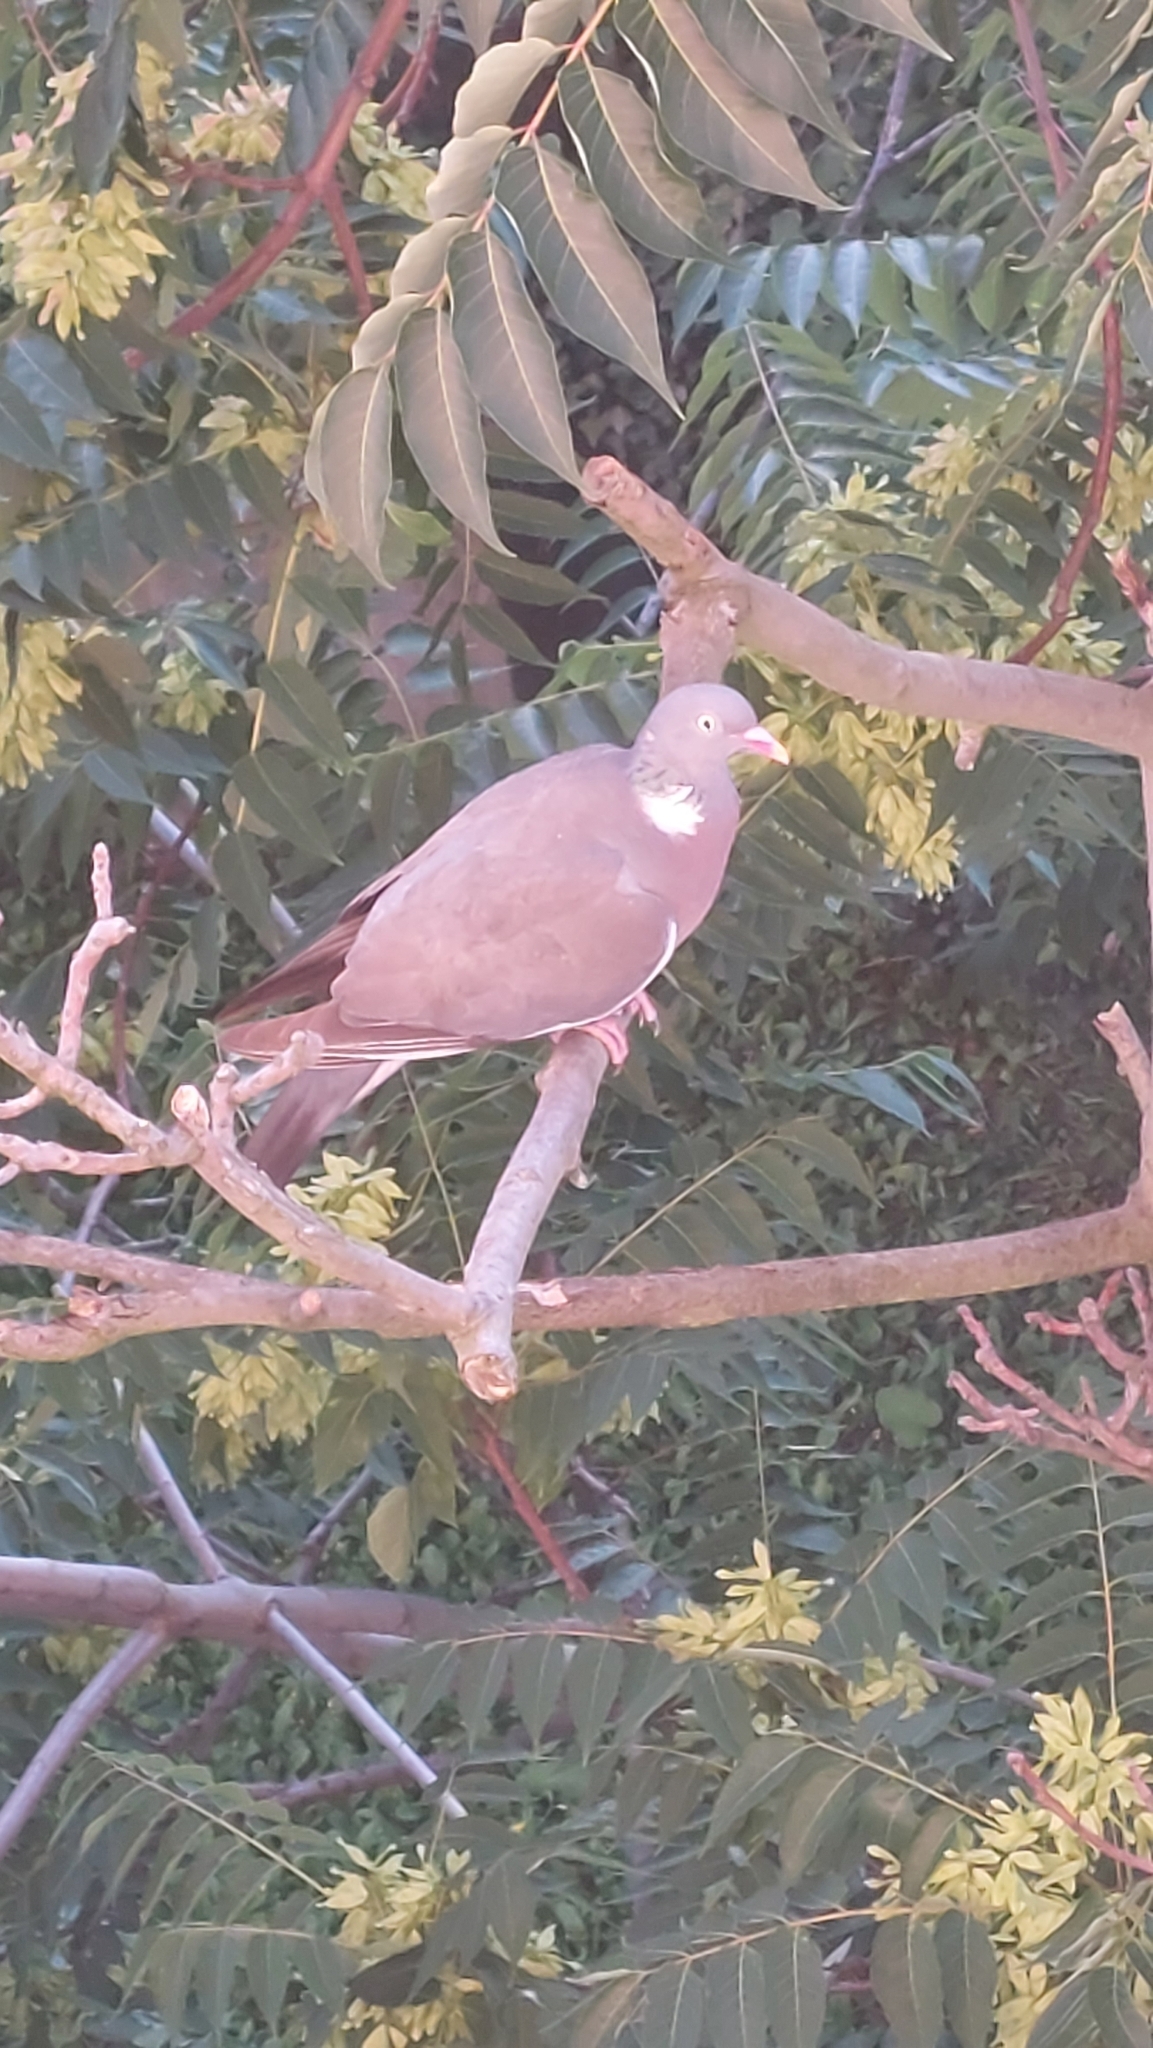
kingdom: Animalia
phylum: Chordata
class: Aves
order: Columbiformes
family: Columbidae
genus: Columba
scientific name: Columba palumbus
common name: Common wood pigeon
